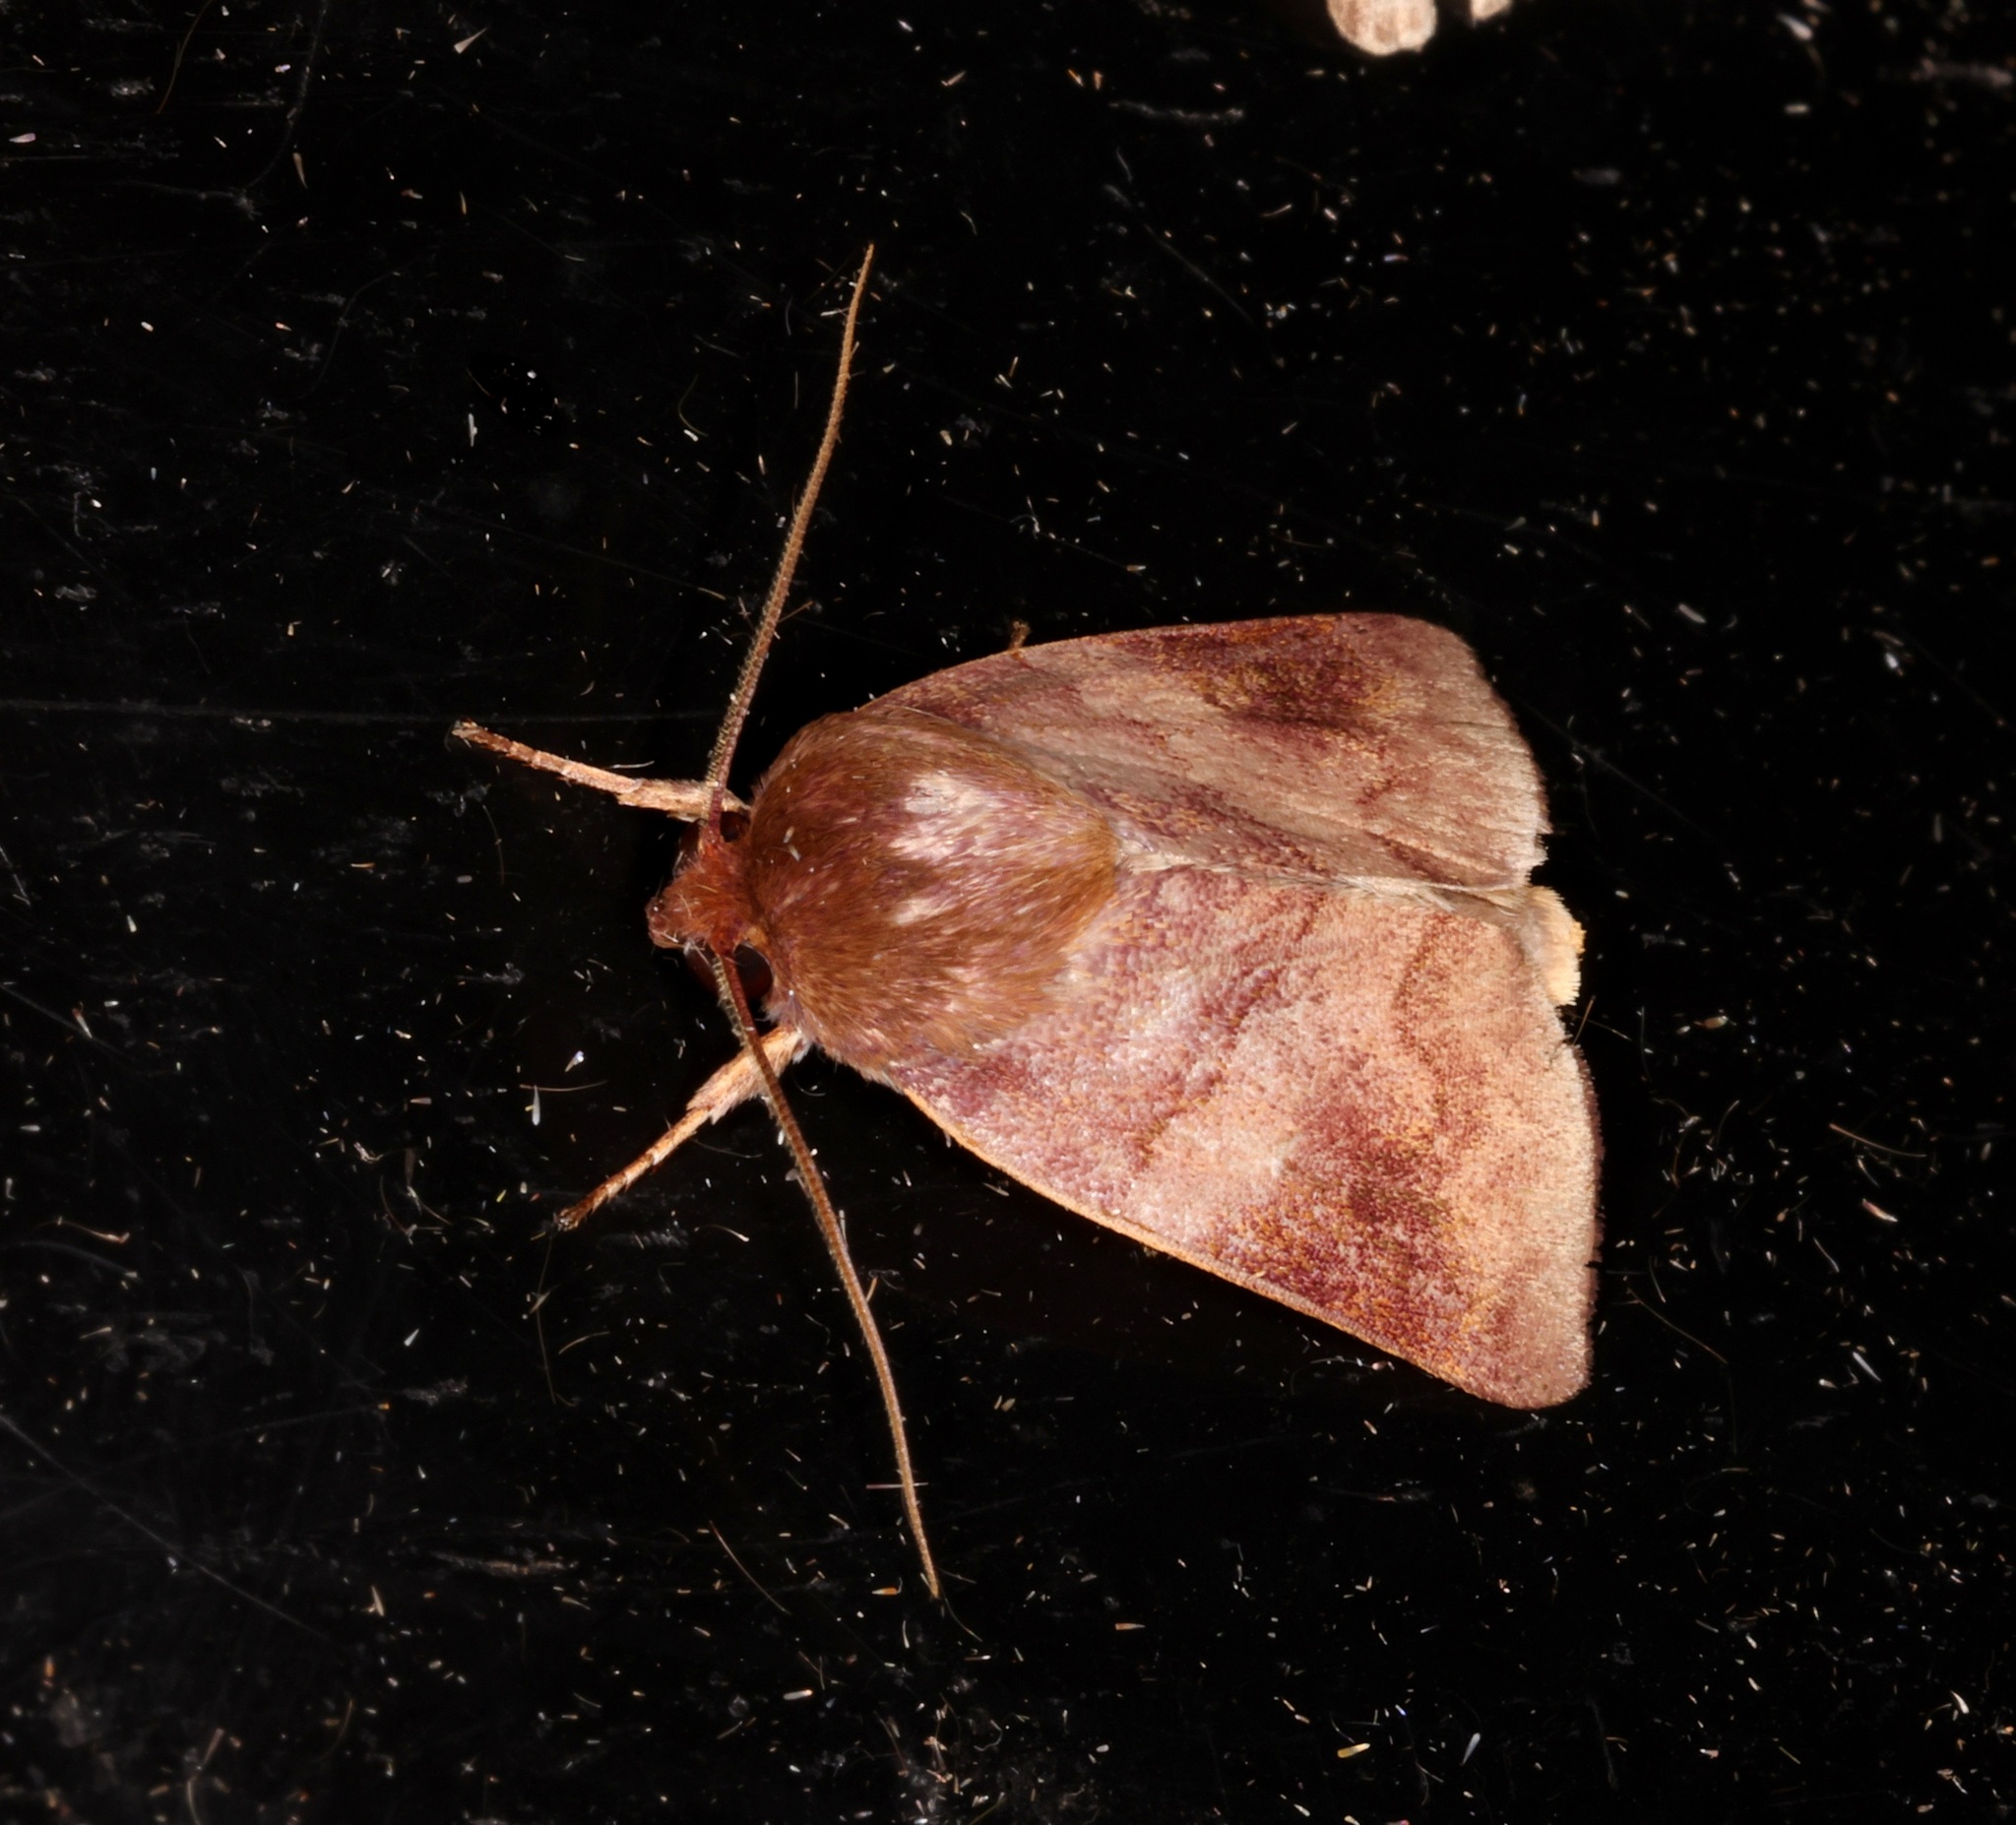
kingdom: Animalia
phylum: Arthropoda
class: Insecta
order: Lepidoptera
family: Nolidae
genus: Carea
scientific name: Carea internifusca
